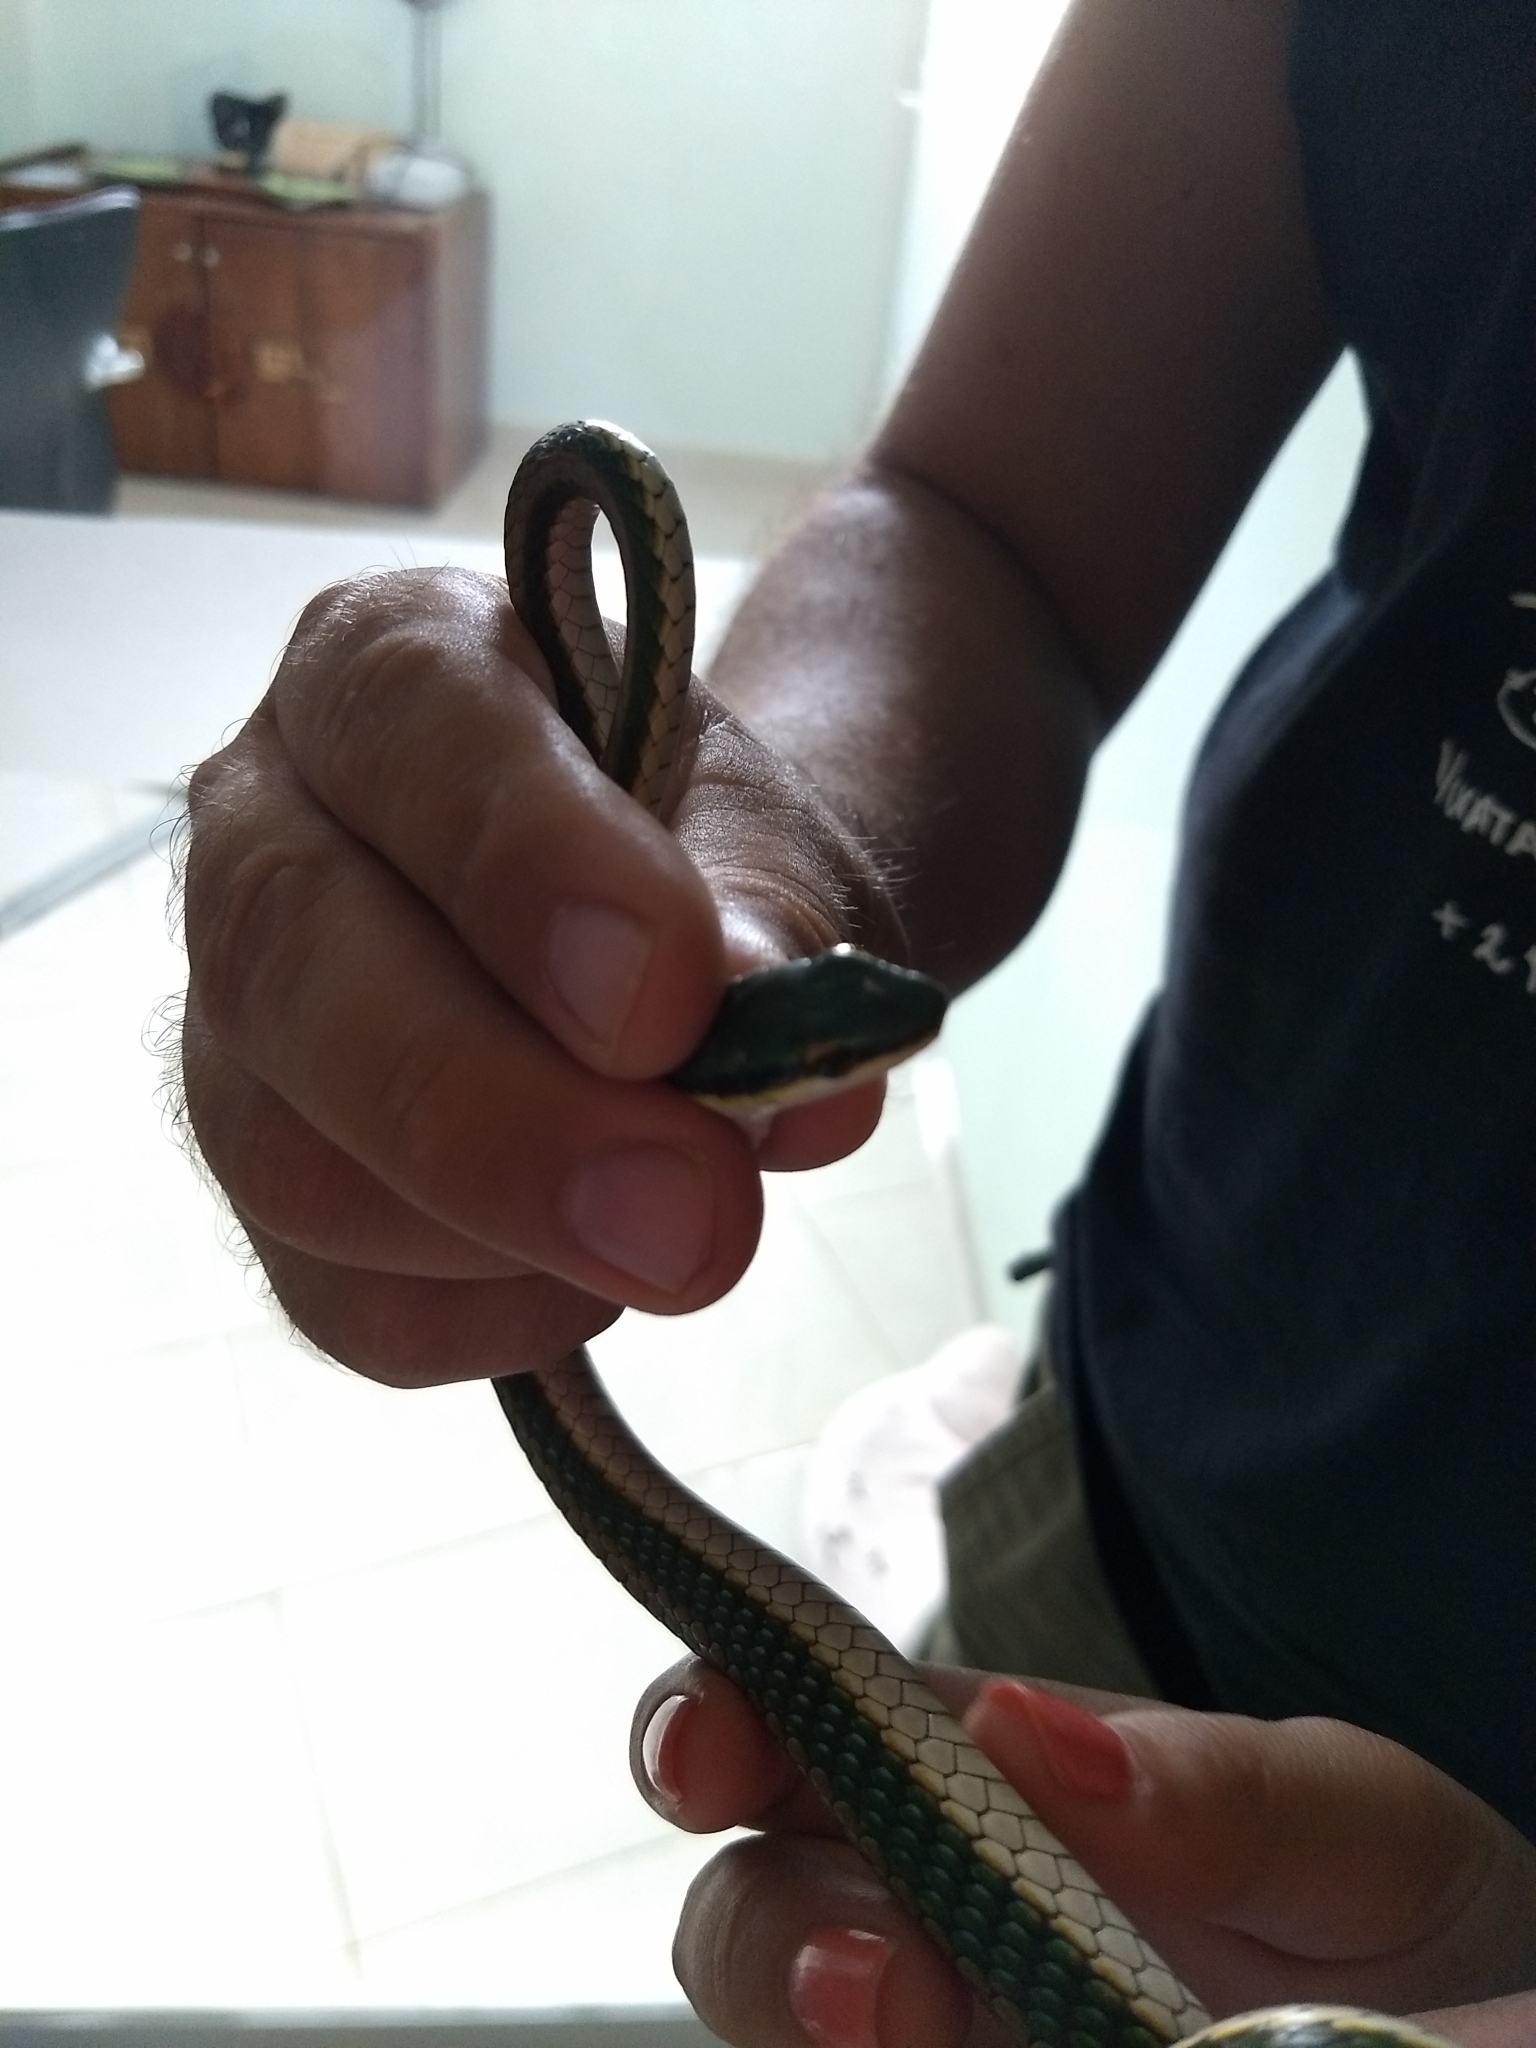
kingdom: Animalia
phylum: Chordata
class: Squamata
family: Colubridae
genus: Leptophis
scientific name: Leptophis mexicanus
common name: Mexican parrot snake
